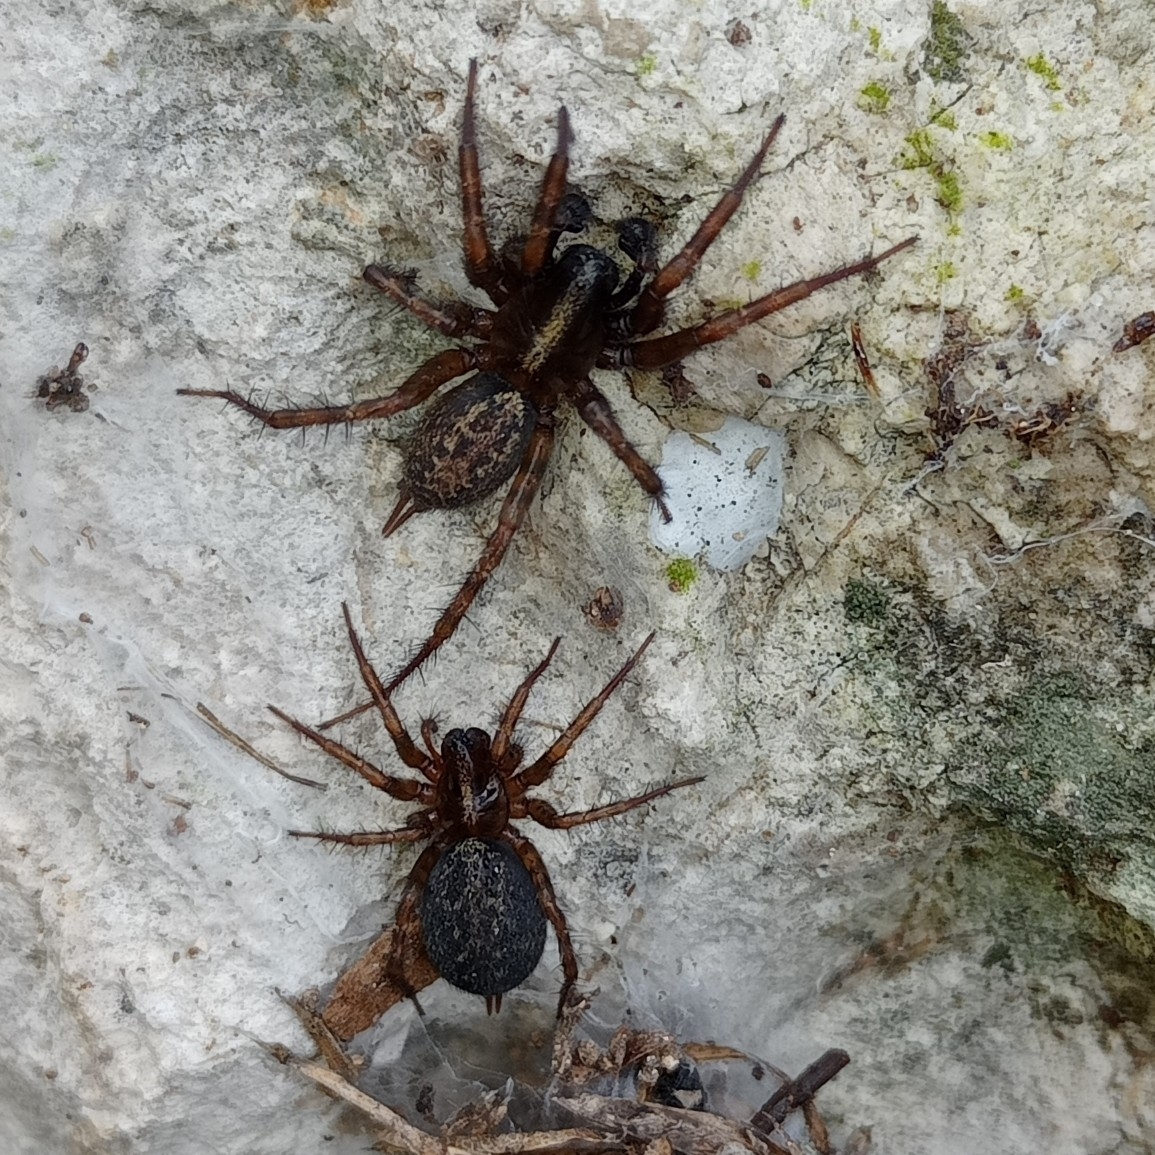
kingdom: Animalia
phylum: Arthropoda
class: Arachnida
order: Araneae
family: Agelenidae
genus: Maimuna
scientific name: Maimuna vestita
